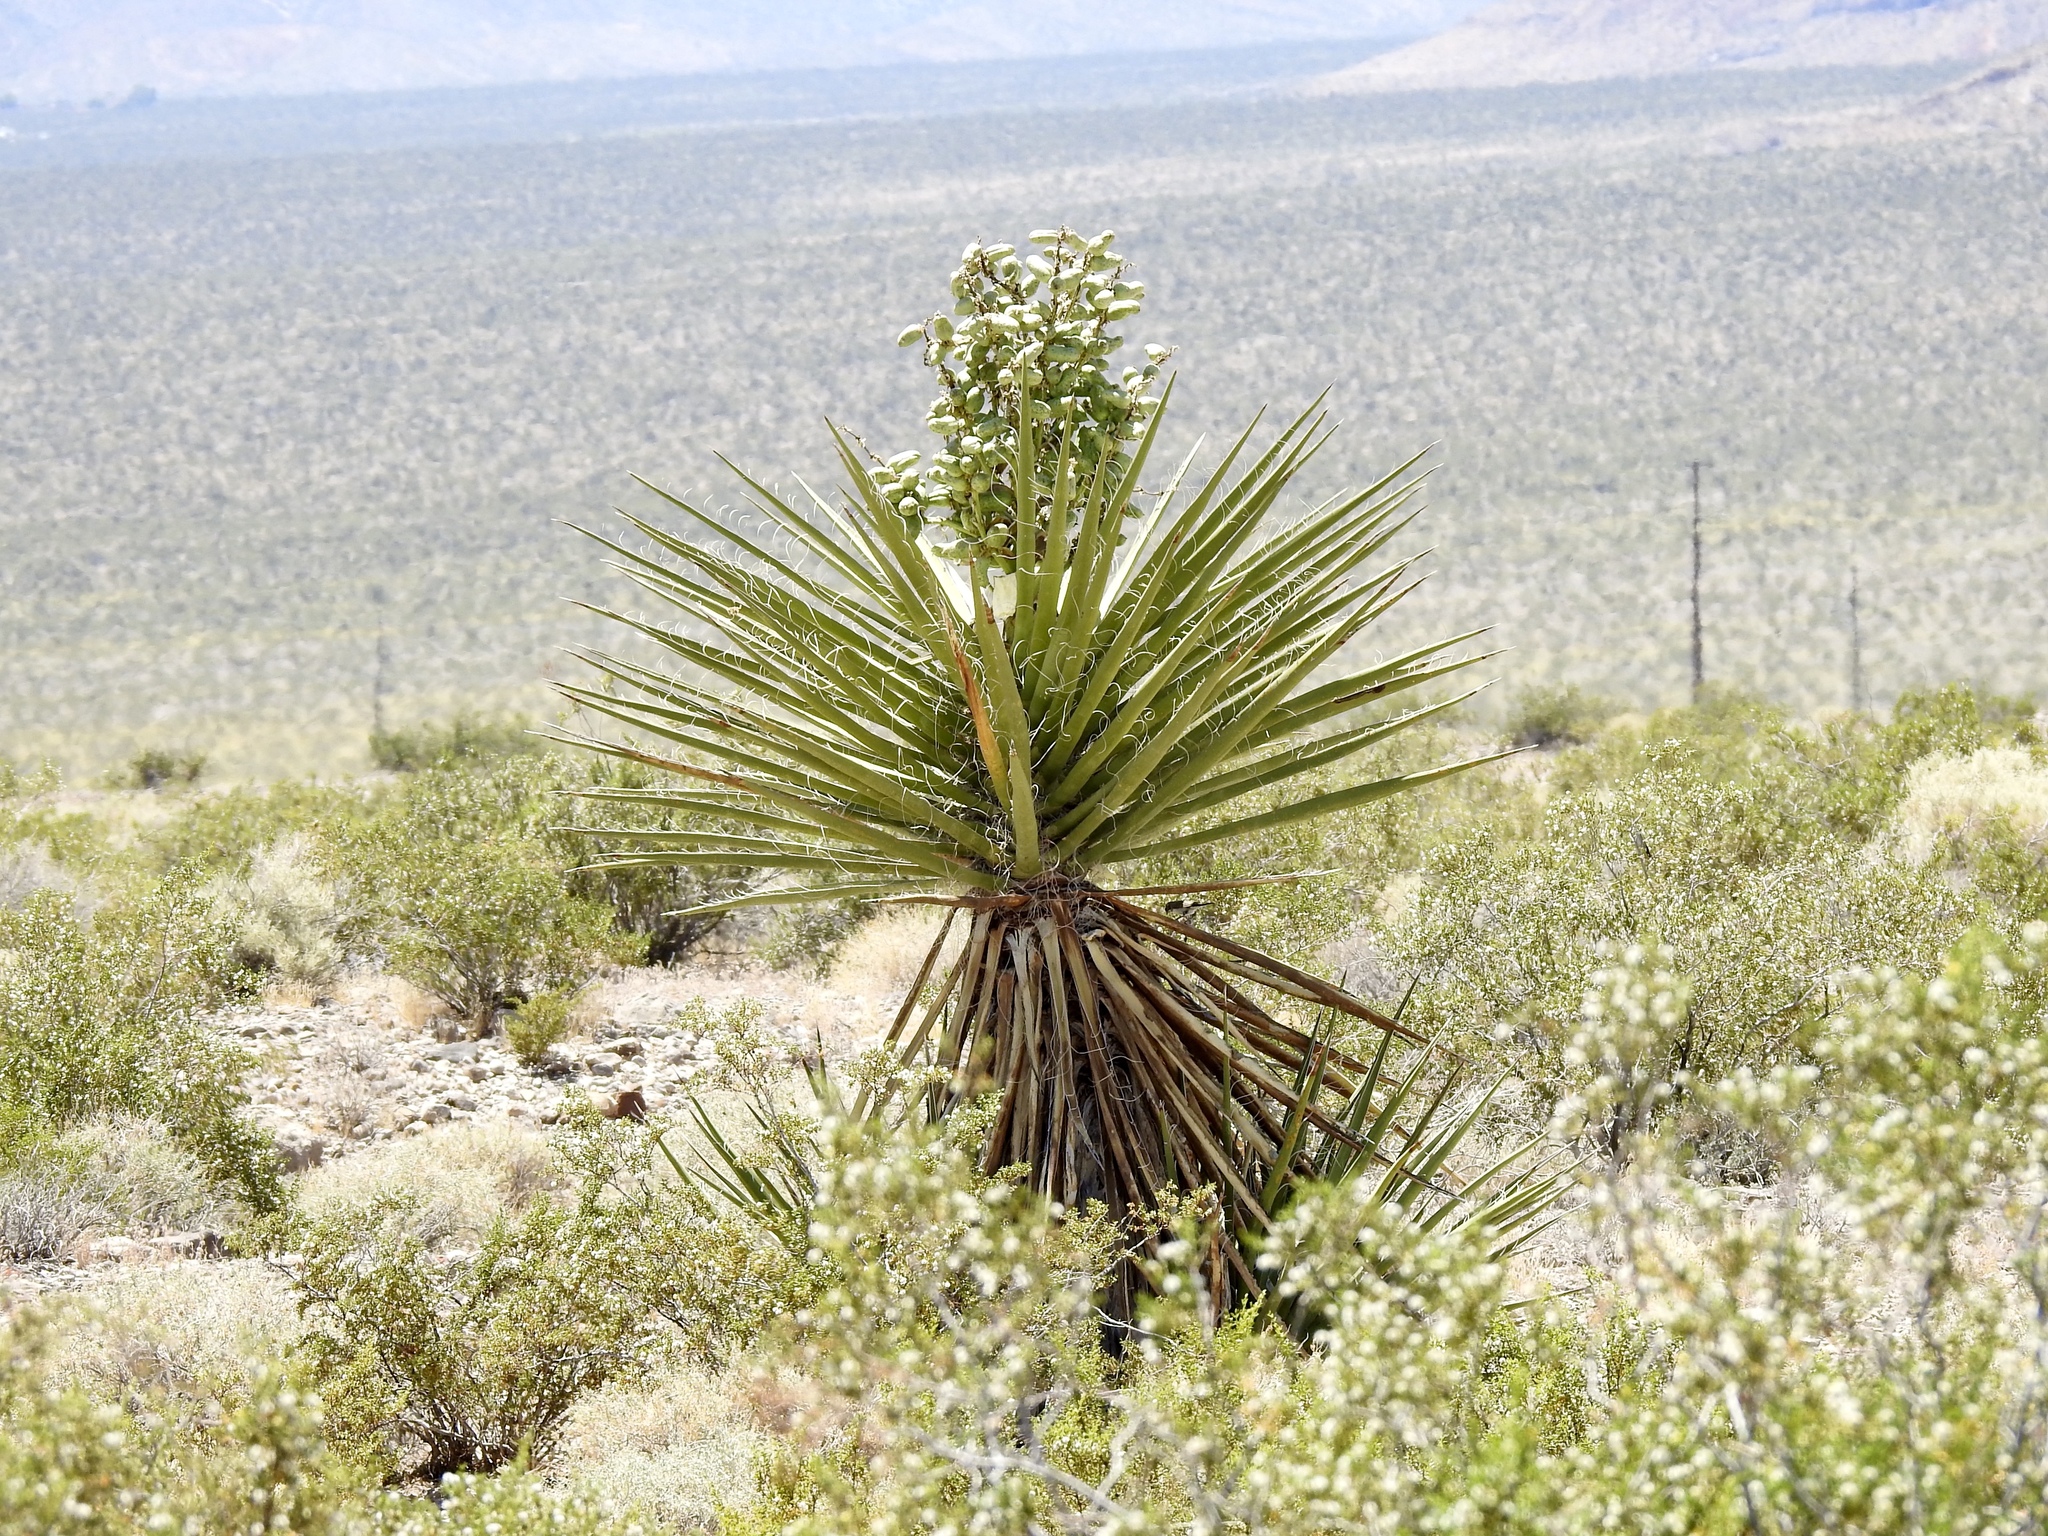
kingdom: Plantae
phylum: Tracheophyta
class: Liliopsida
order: Asparagales
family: Asparagaceae
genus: Yucca
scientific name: Yucca schidigera
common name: Mojave yucca
